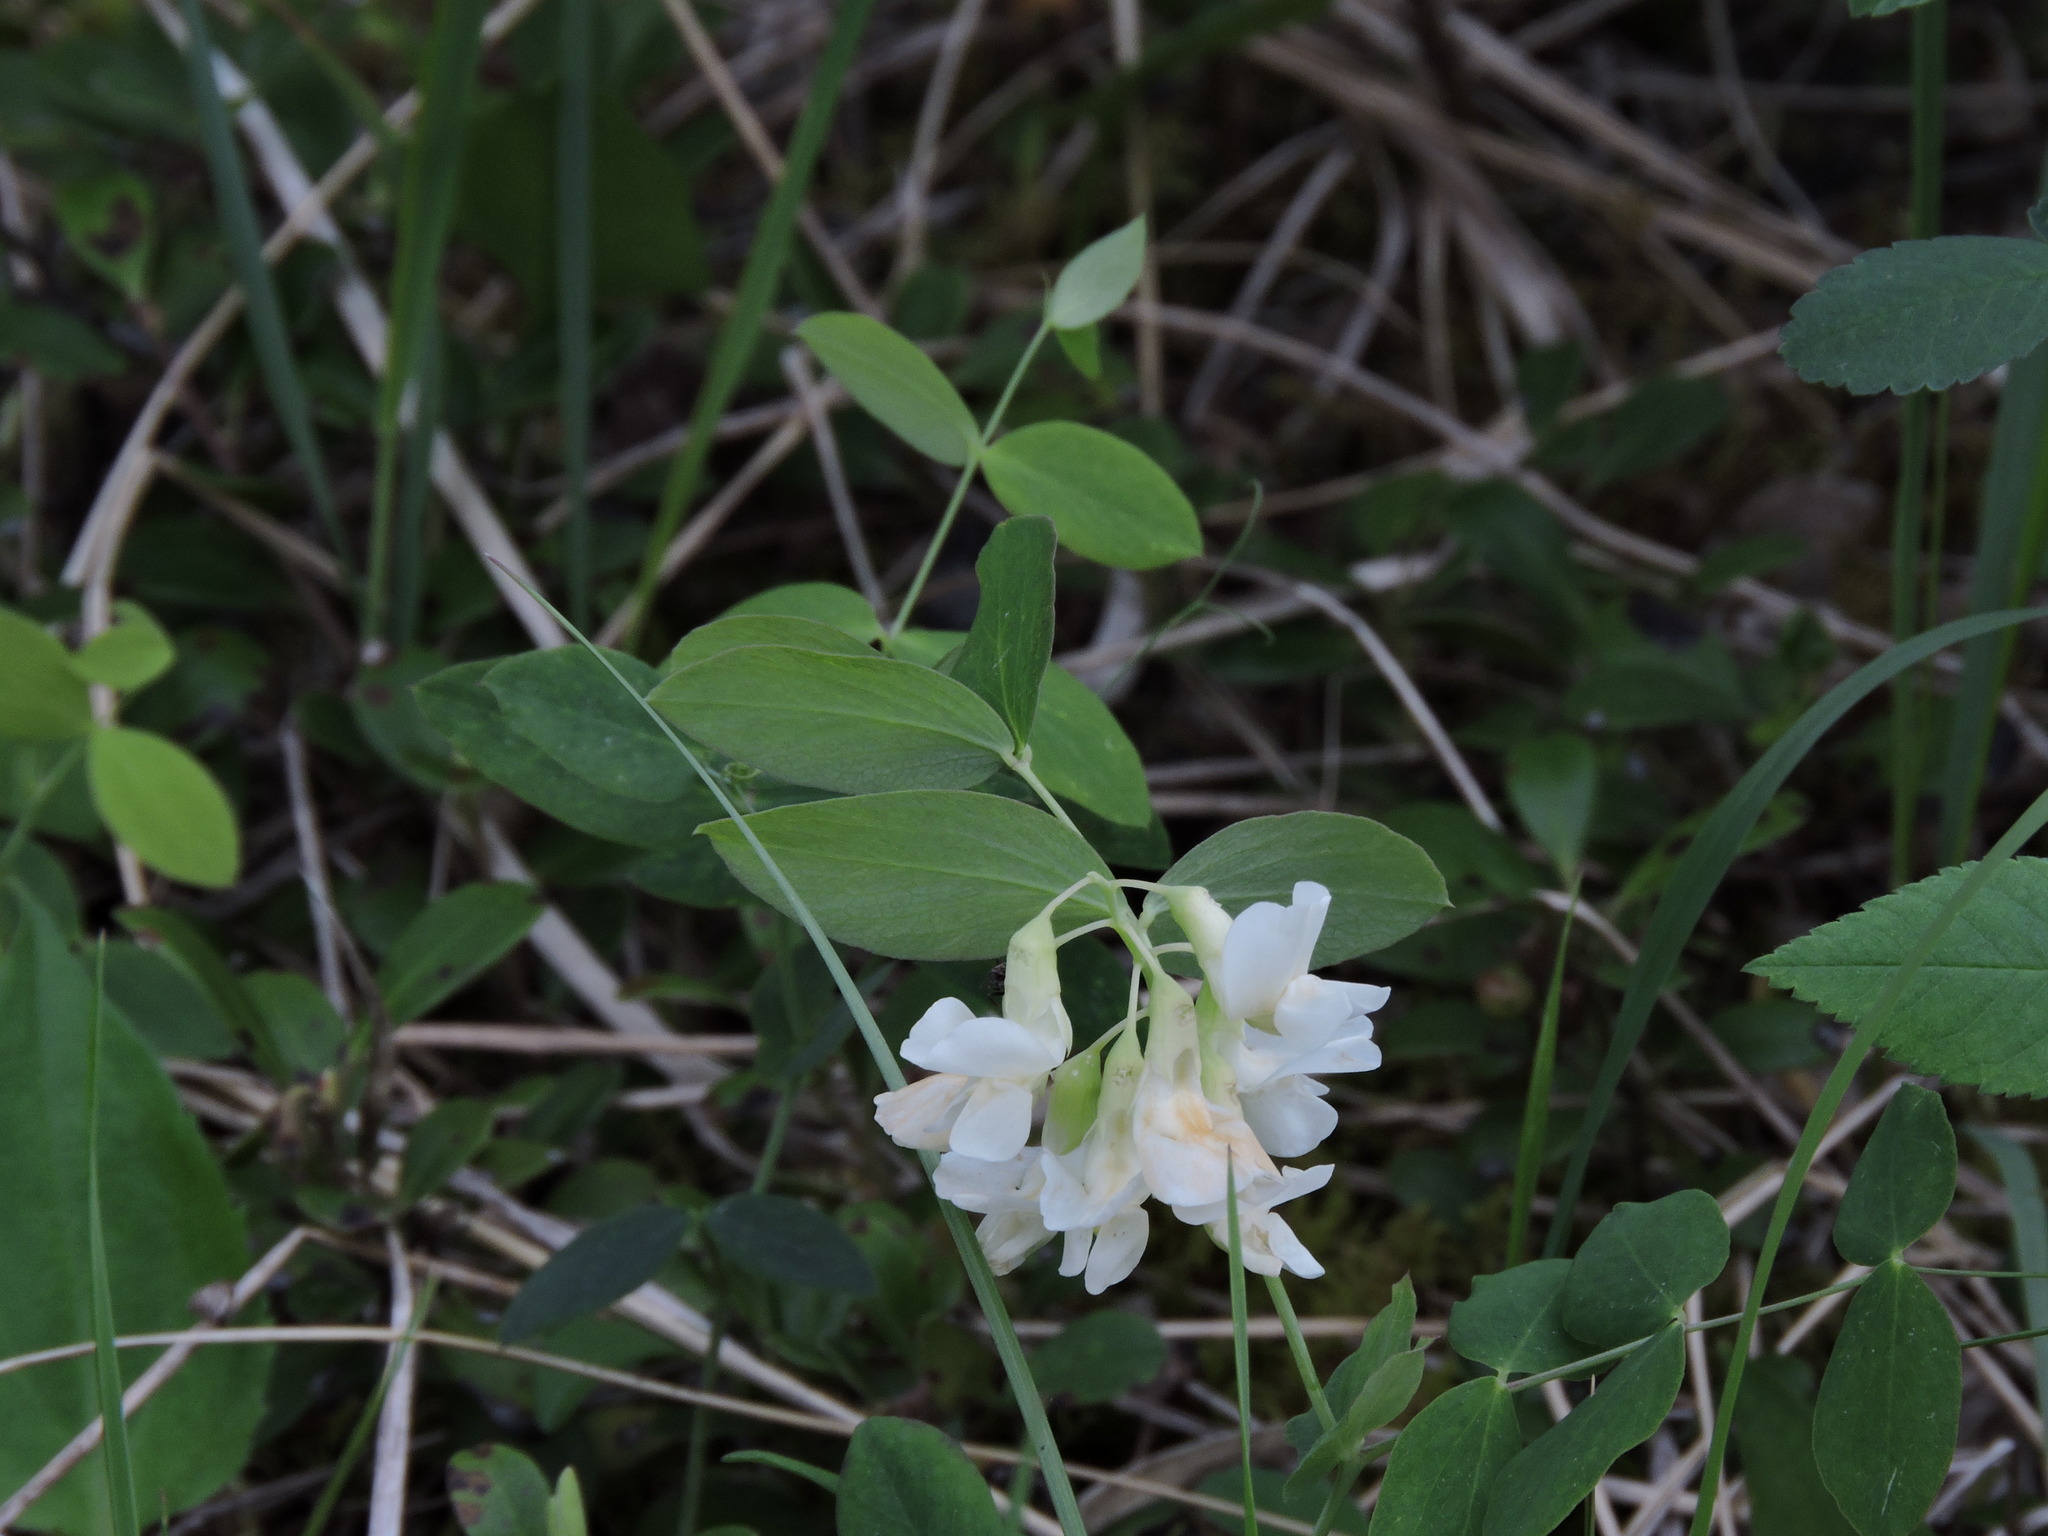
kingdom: Plantae
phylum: Tracheophyta
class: Magnoliopsida
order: Fabales
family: Fabaceae
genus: Lathyrus
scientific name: Lathyrus ochroleucus
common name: Pale vetchling
